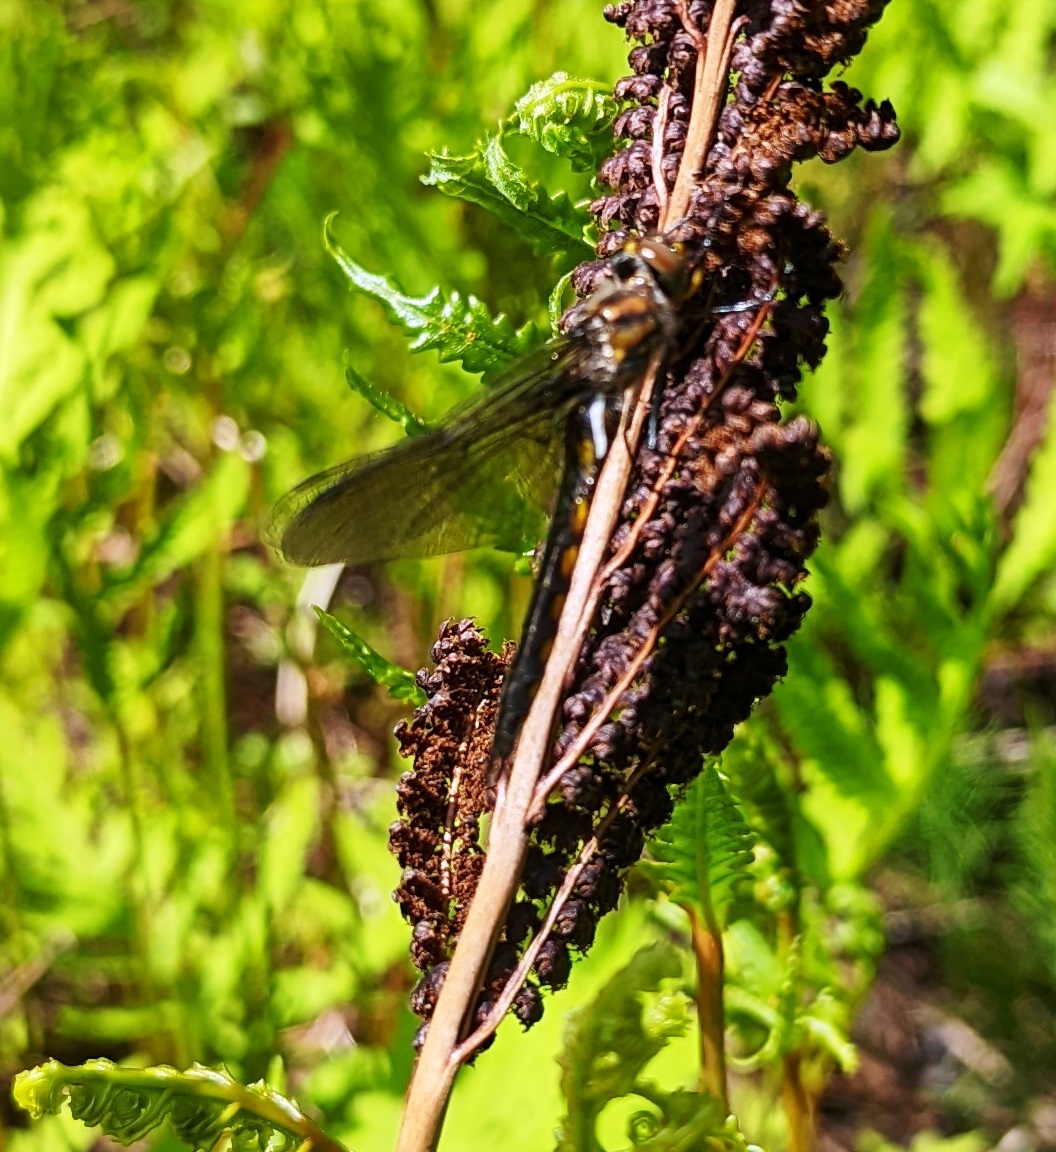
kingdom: Animalia
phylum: Arthropoda
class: Insecta
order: Odonata
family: Corduliidae
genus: Epitheca
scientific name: Epitheca spinigera
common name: Spiny baskettail
